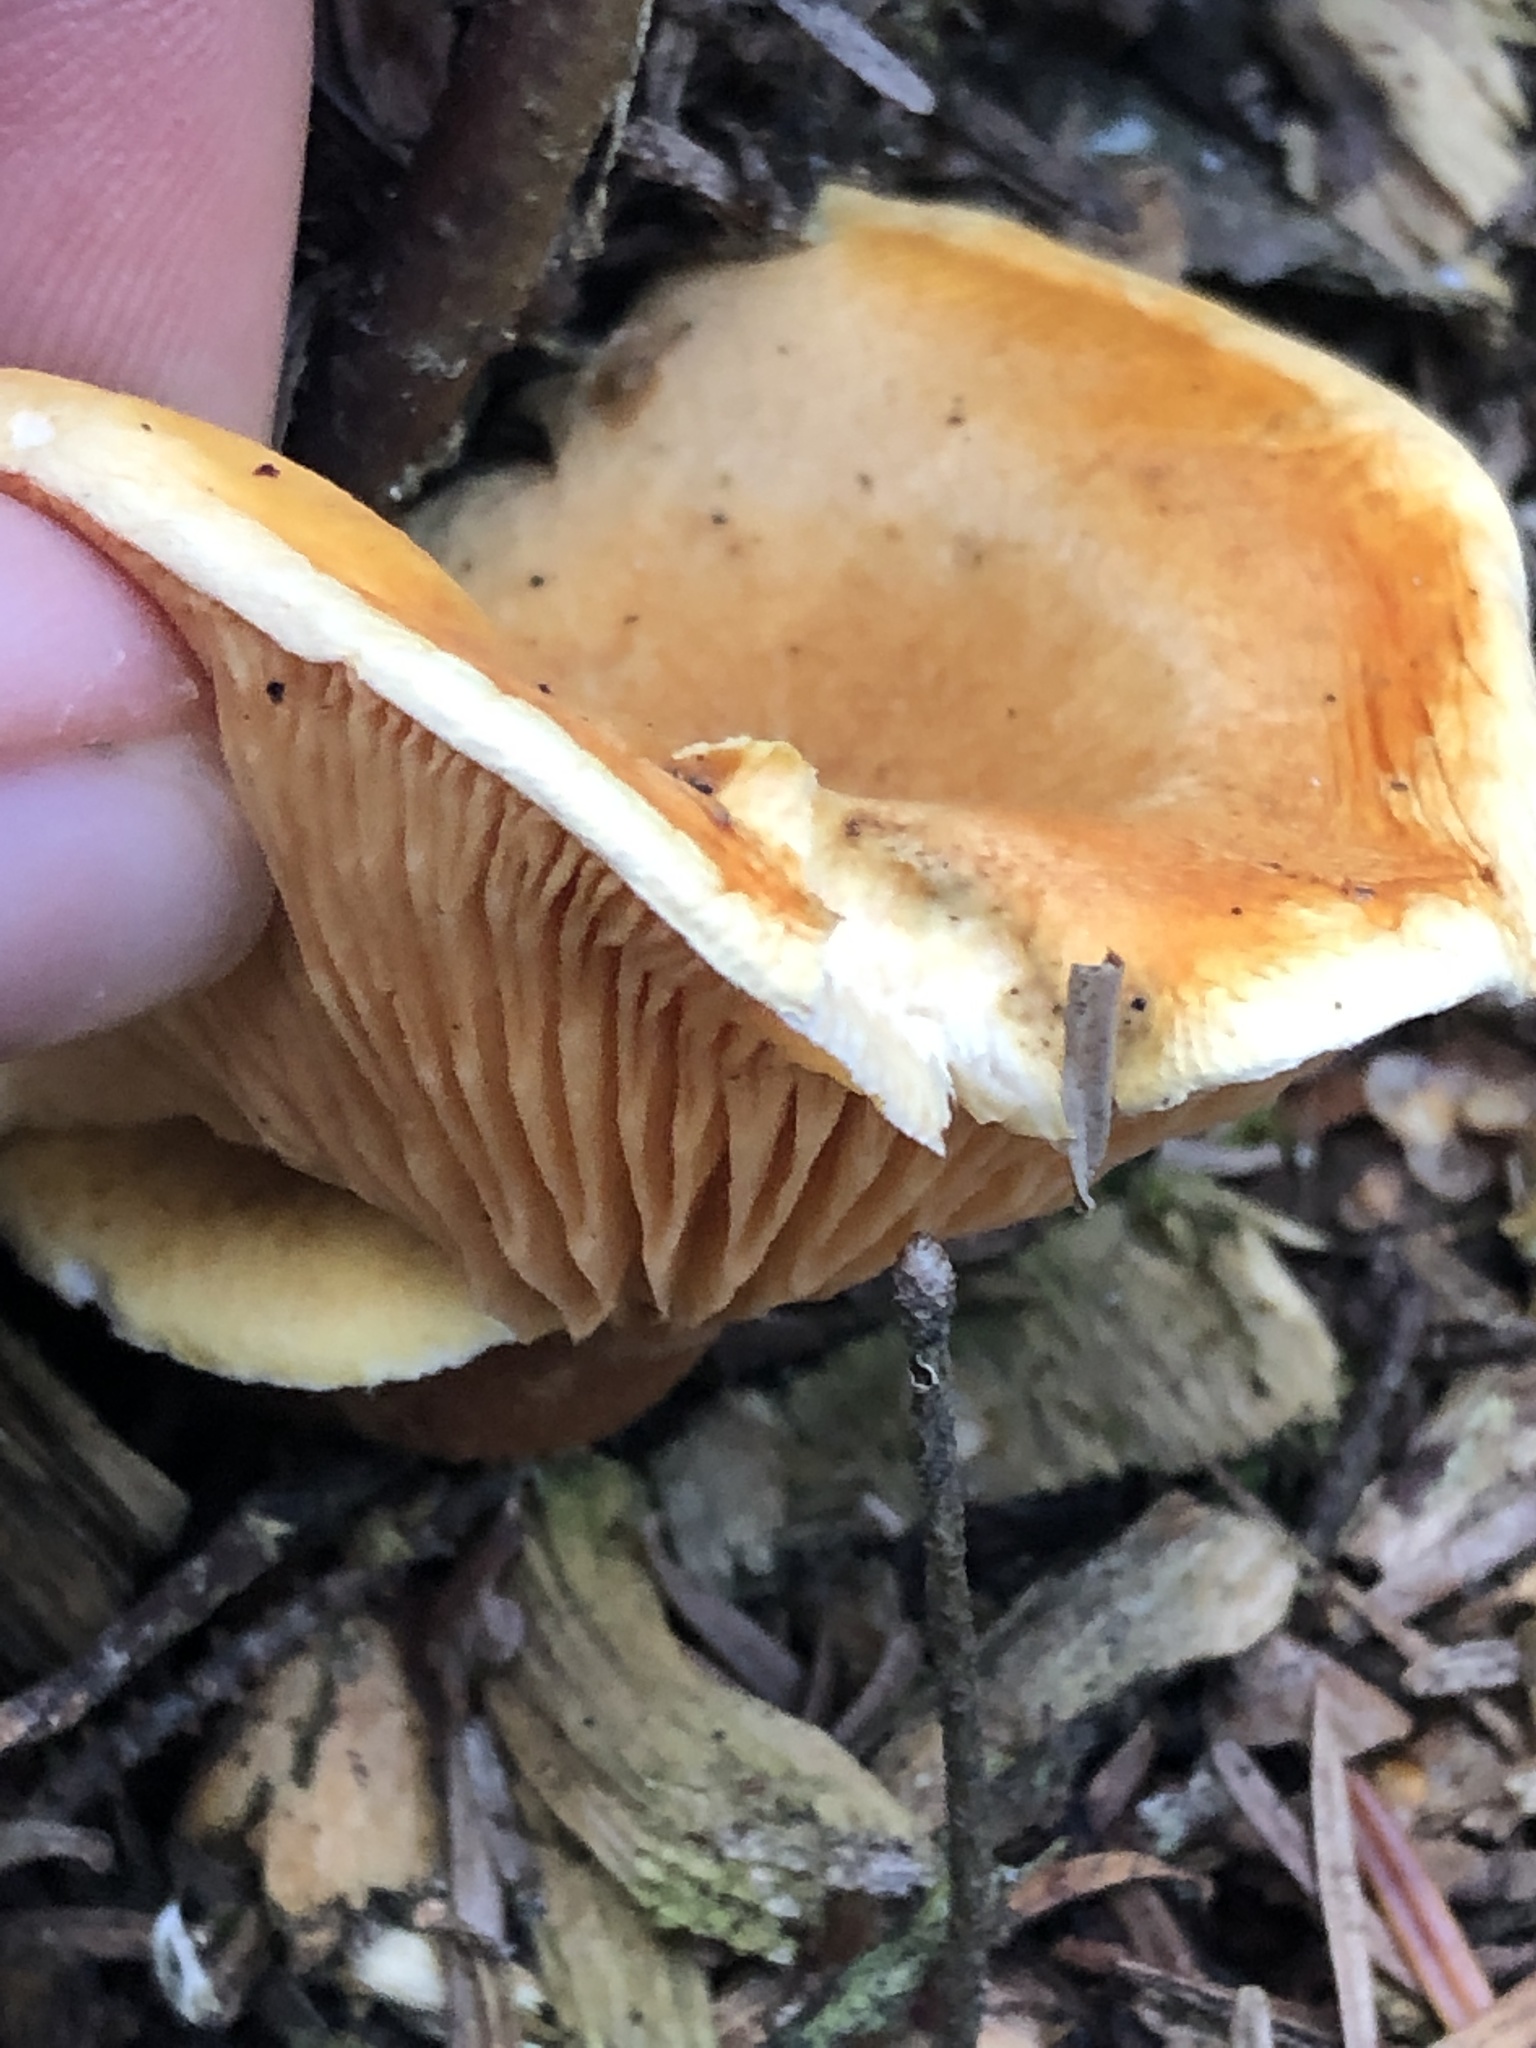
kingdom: Fungi
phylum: Basidiomycota
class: Agaricomycetes
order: Boletales
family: Hygrophoropsidaceae
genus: Hygrophoropsis
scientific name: Hygrophoropsis aurantiaca
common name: False chanterelle
